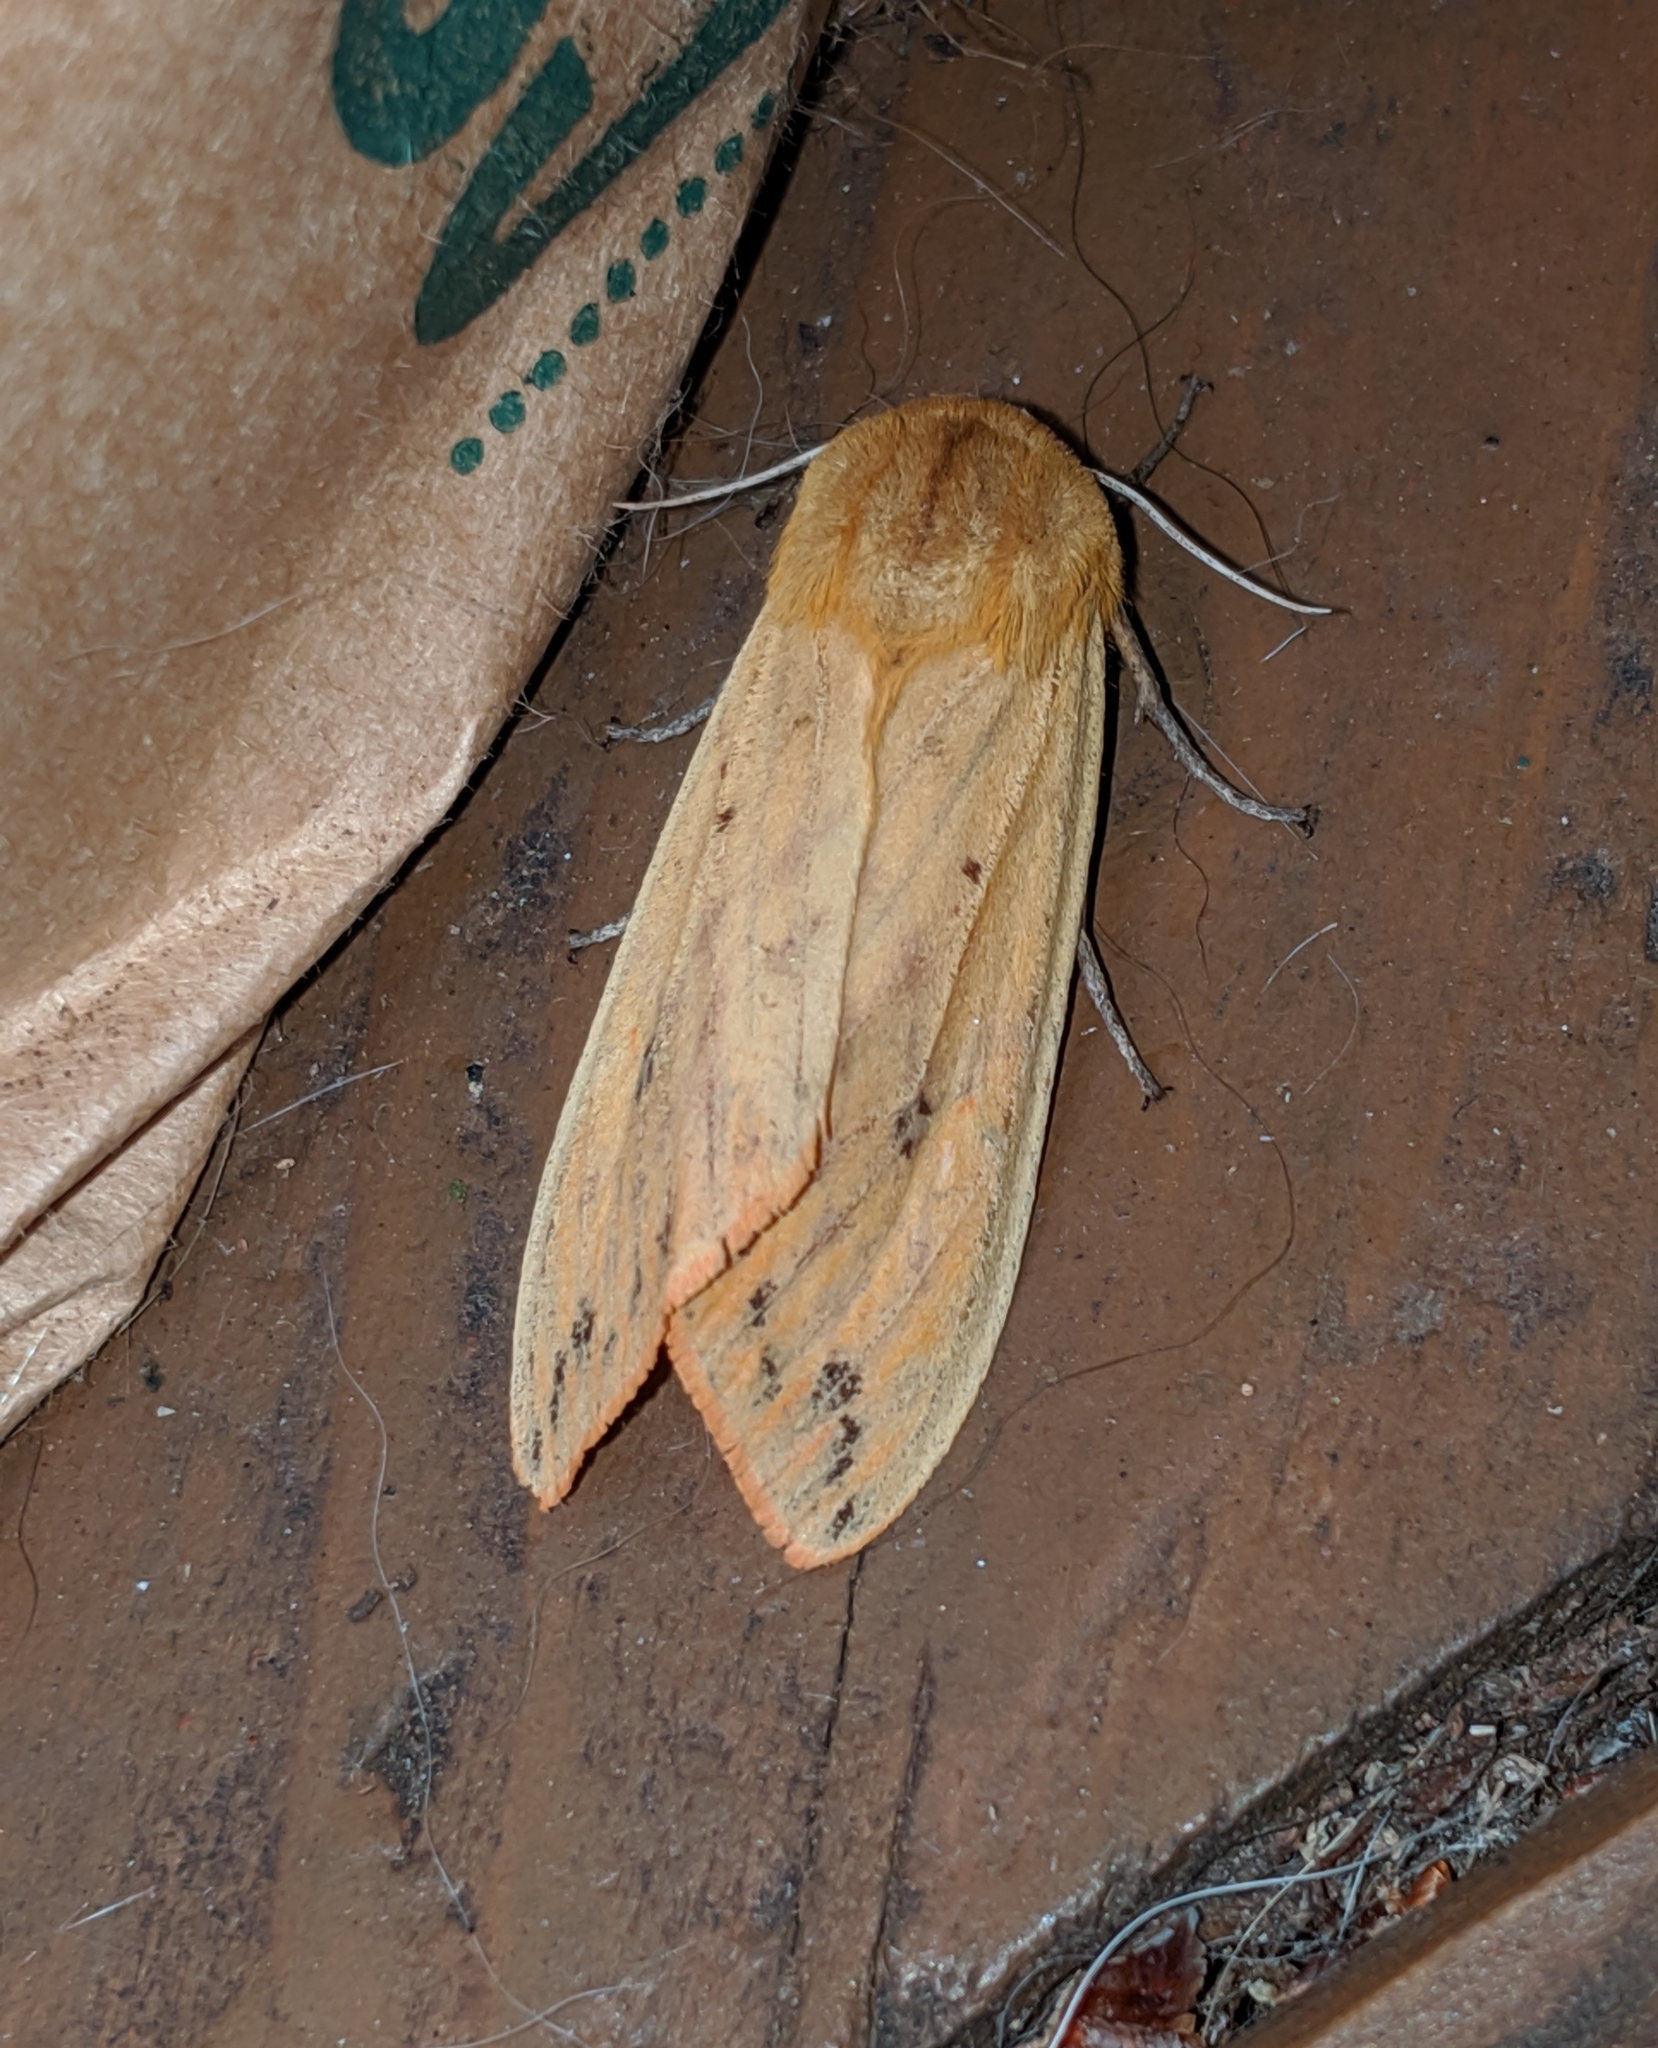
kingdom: Animalia
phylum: Arthropoda
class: Insecta
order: Lepidoptera
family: Erebidae
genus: Pyrrharctia
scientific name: Pyrrharctia isabella
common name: Isabella tiger moth
